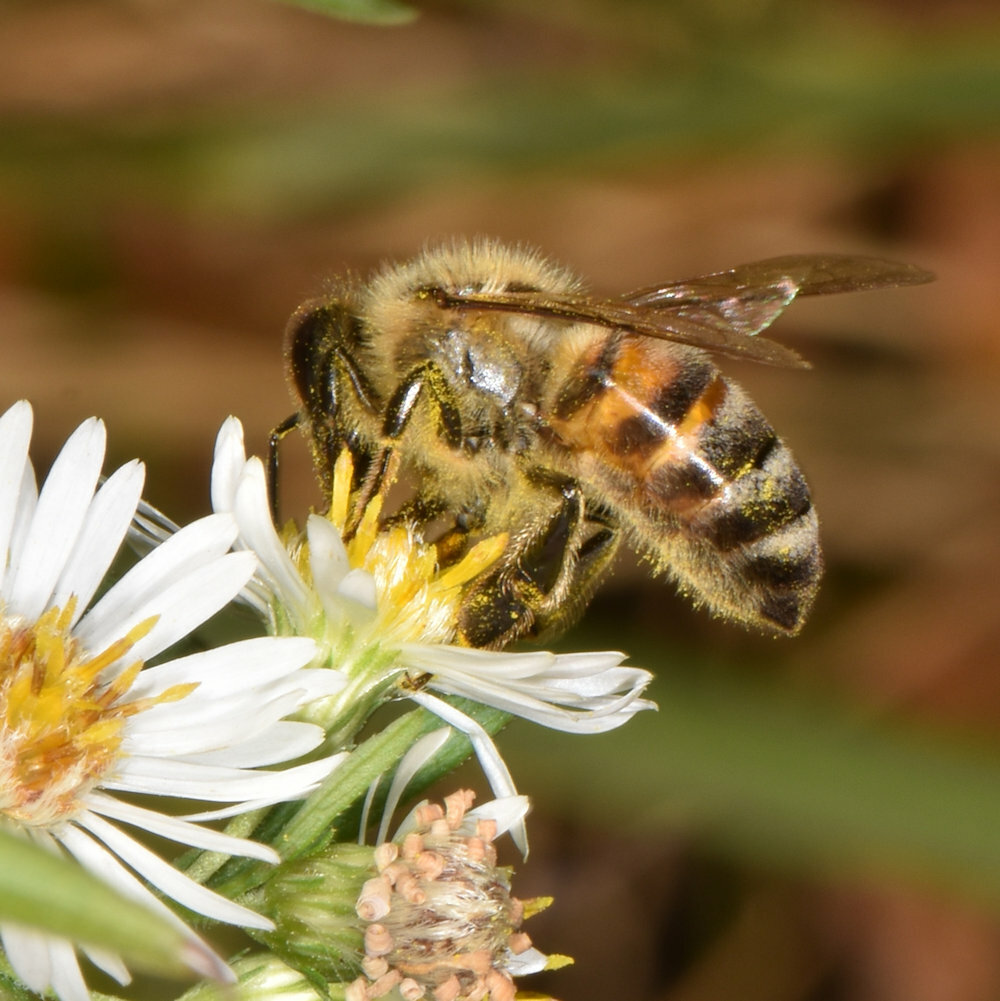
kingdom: Animalia
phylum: Arthropoda
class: Insecta
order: Hymenoptera
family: Apidae
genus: Apis
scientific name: Apis mellifera
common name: Honey bee
